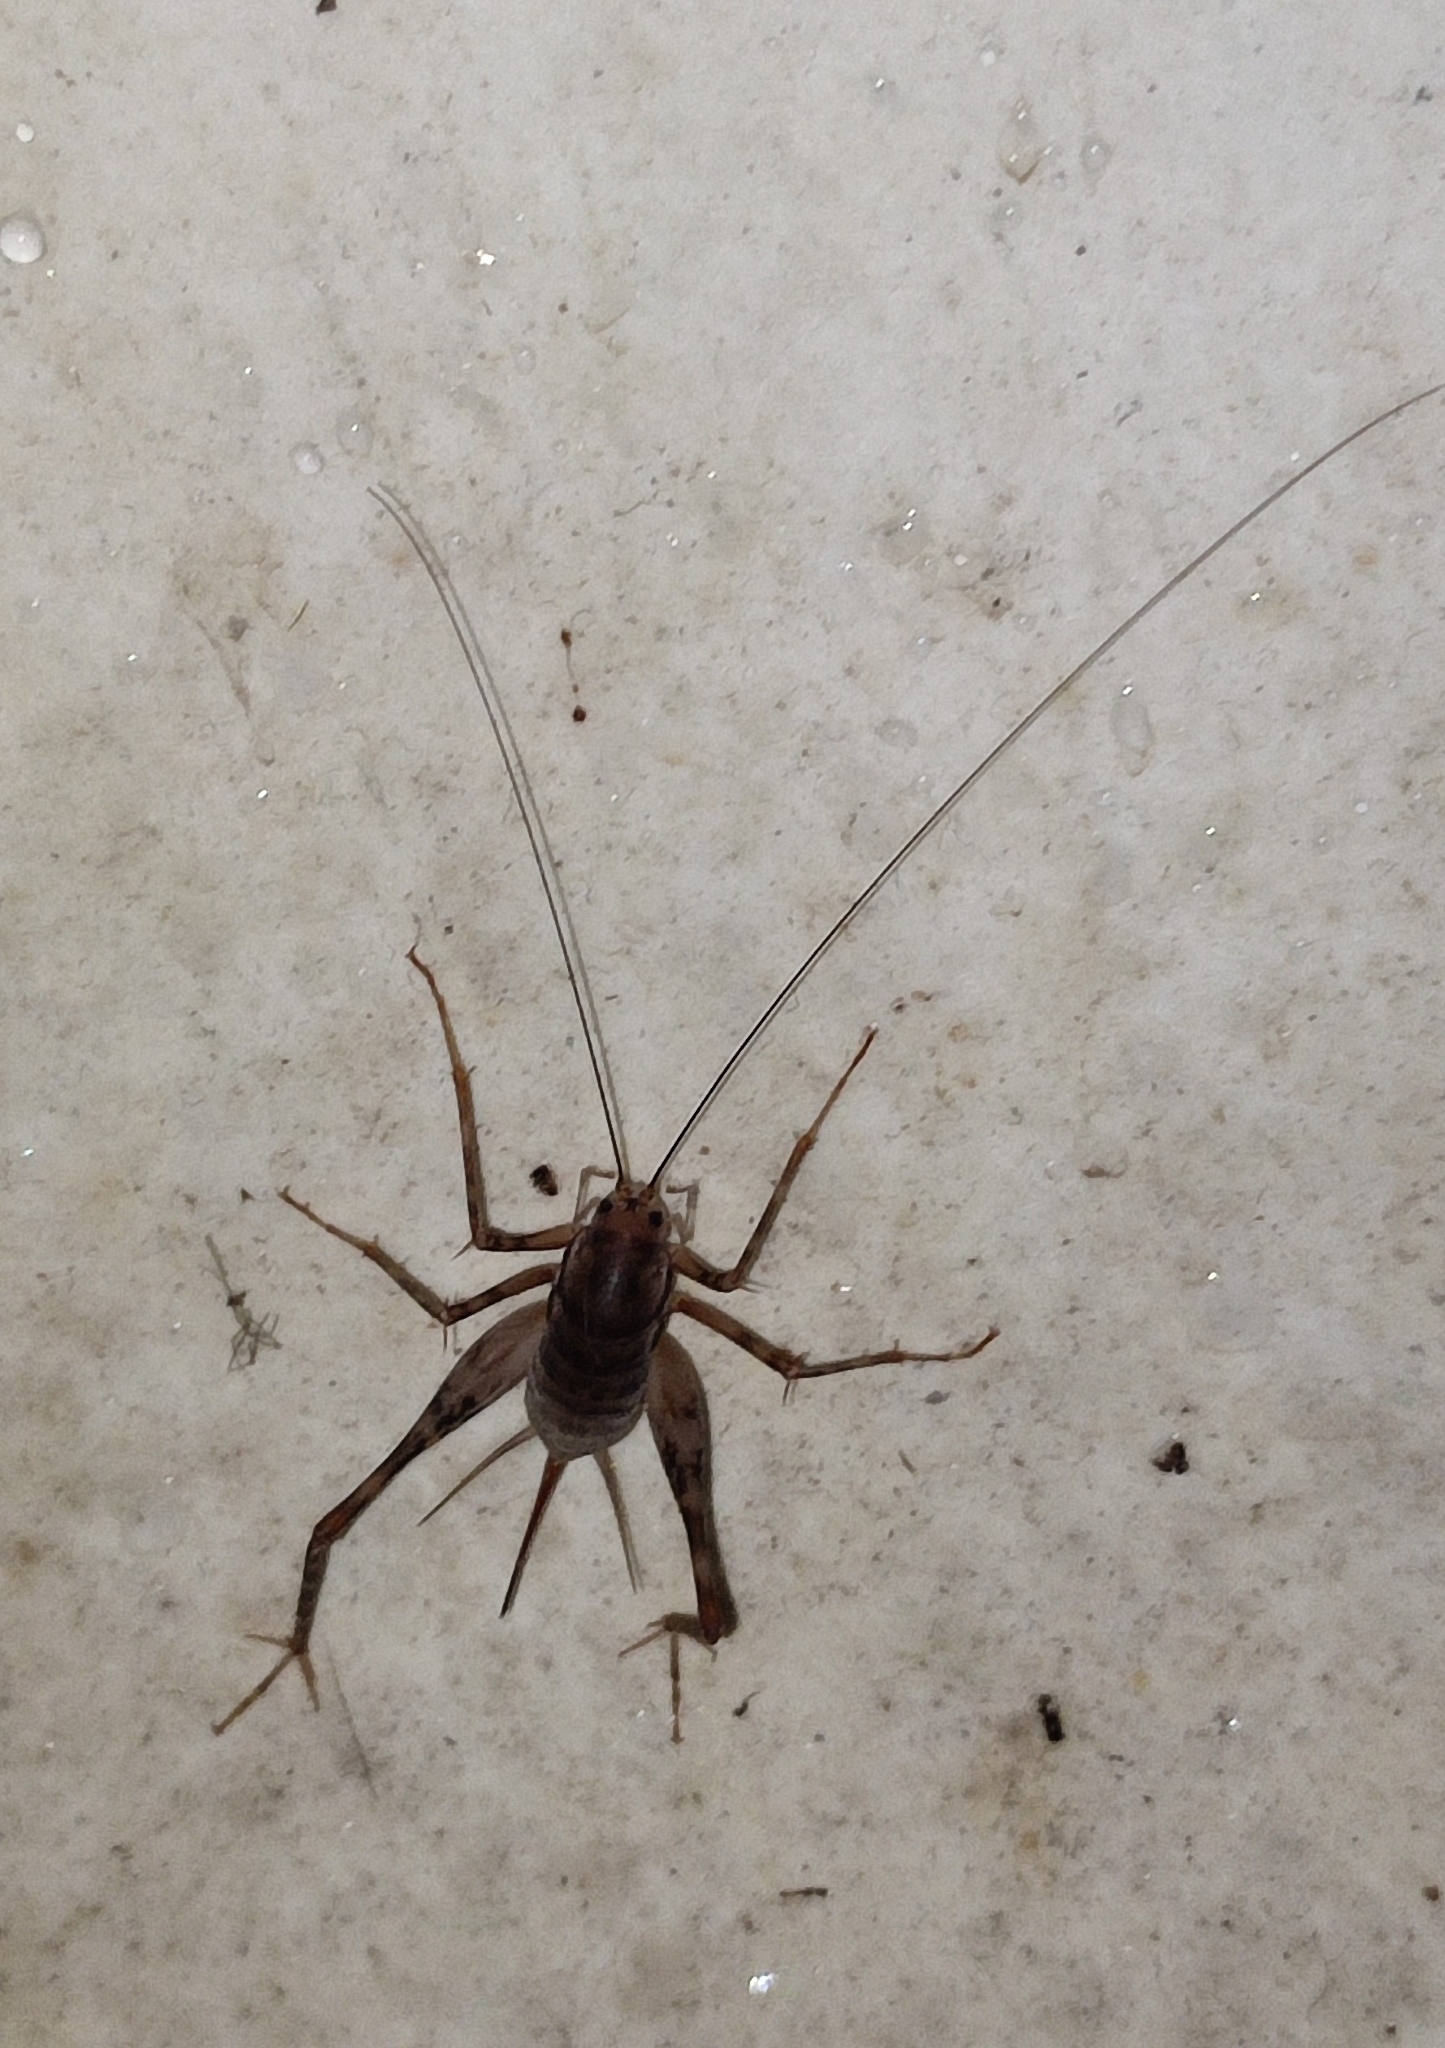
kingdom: Animalia
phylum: Arthropoda
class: Insecta
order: Orthoptera
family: Rhaphidophoridae
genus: Tachycines
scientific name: Tachycines asynamorus
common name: Greenhouse camel cricket
